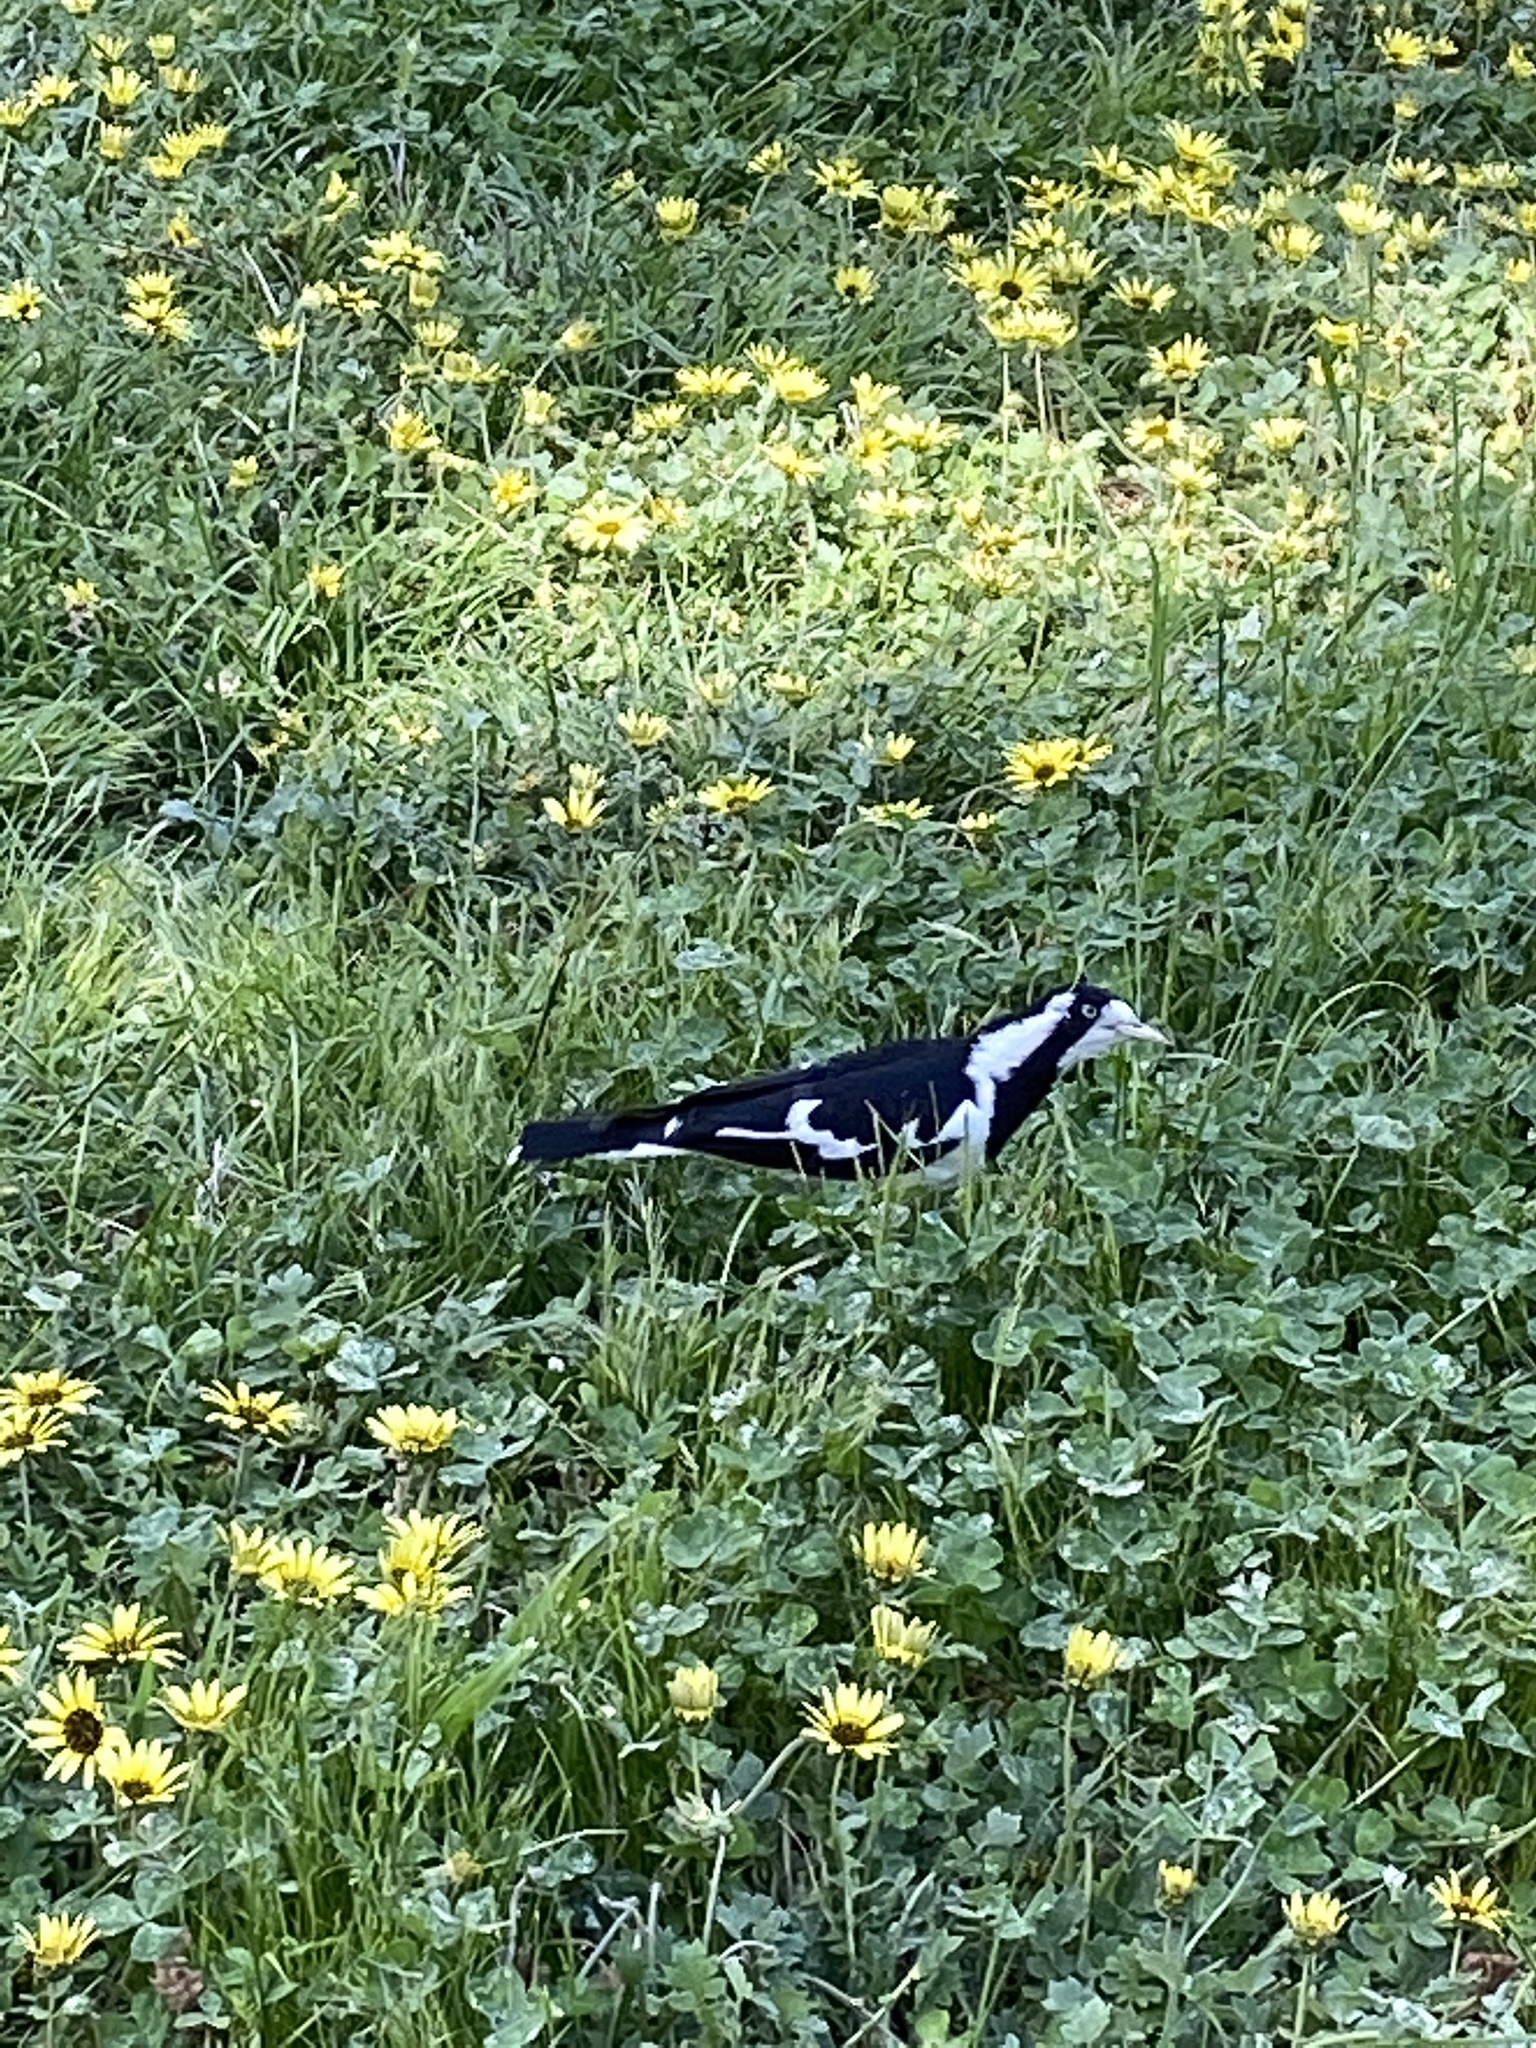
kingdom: Animalia
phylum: Chordata
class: Aves
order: Passeriformes
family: Monarchidae
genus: Grallina
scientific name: Grallina cyanoleuca
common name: Magpie-lark
